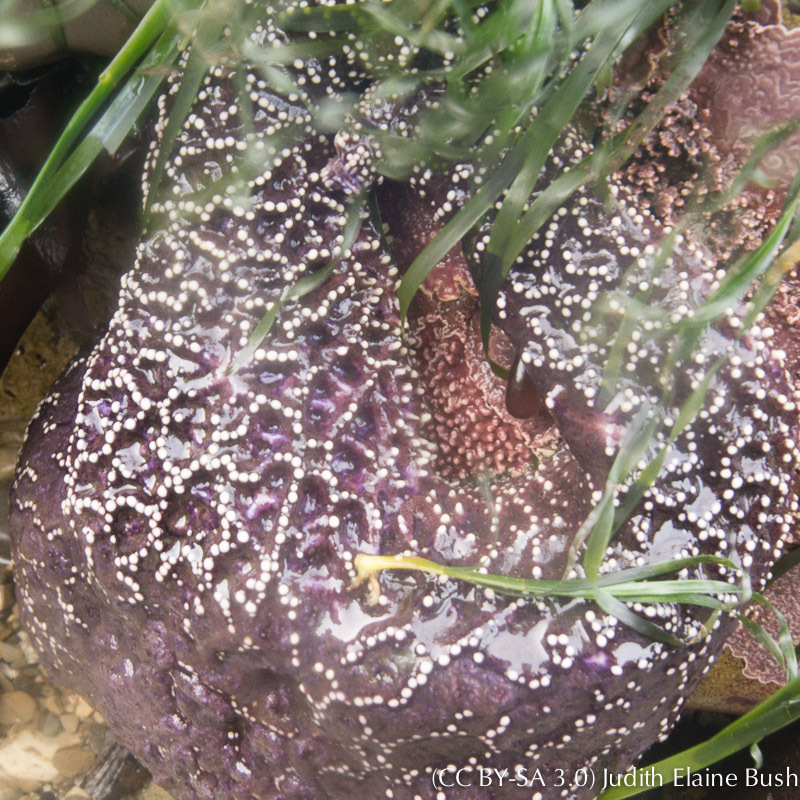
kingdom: Animalia
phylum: Echinodermata
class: Asteroidea
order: Forcipulatida
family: Asteriidae
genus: Pisaster
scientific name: Pisaster ochraceus
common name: Ochre stars
